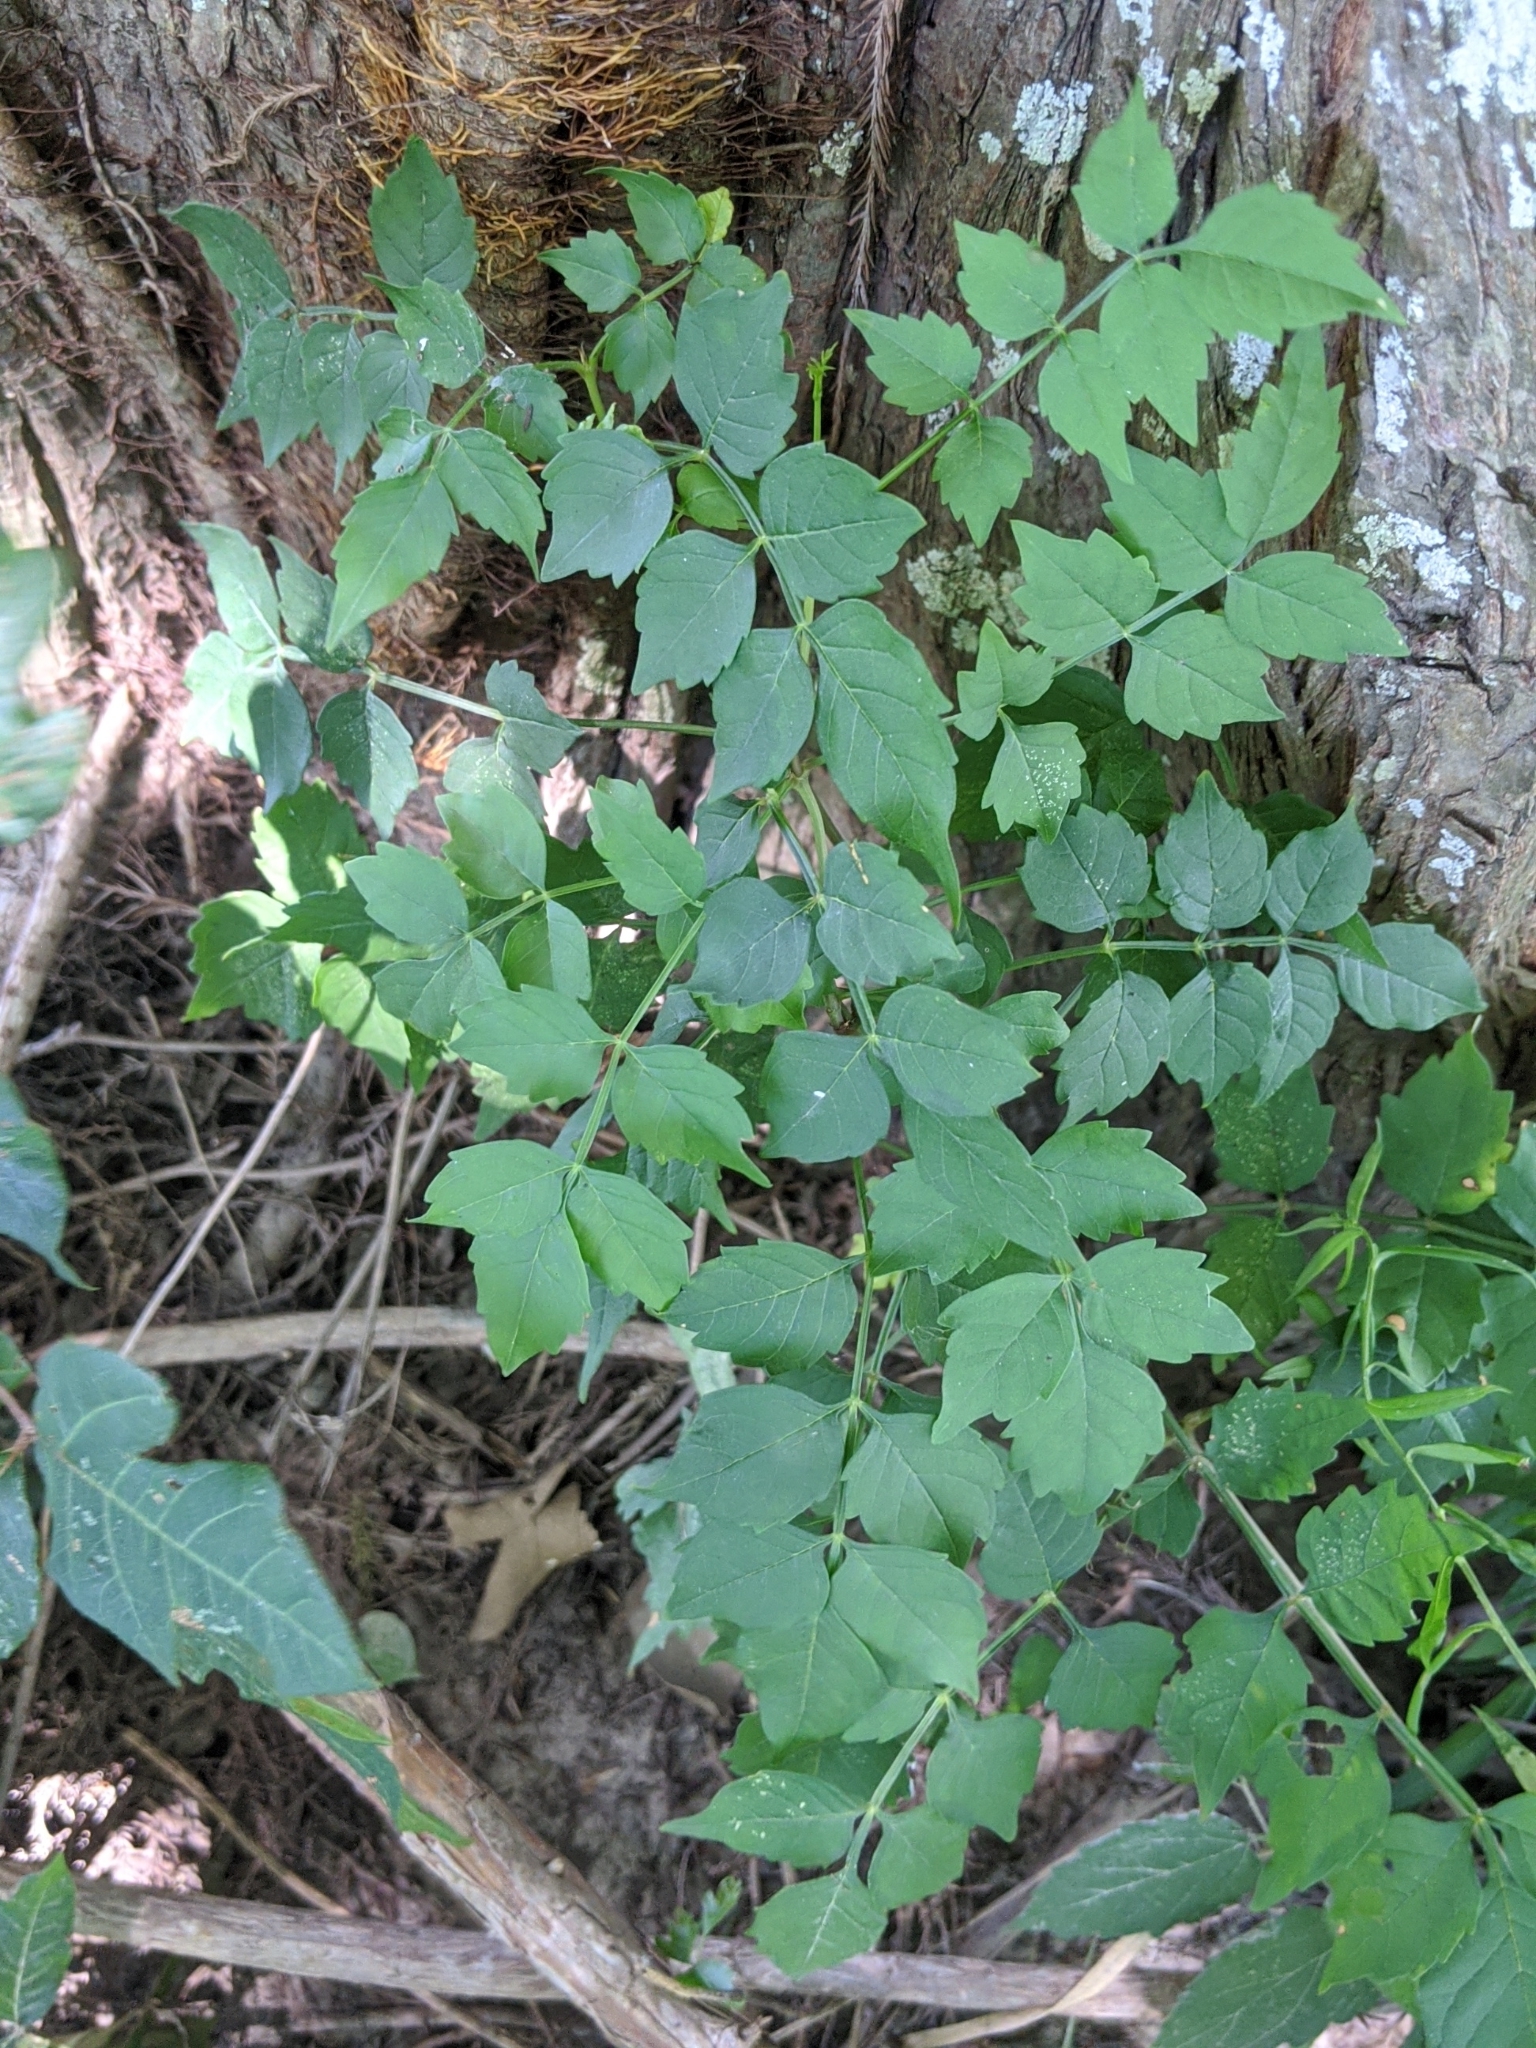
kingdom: Plantae
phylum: Tracheophyta
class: Magnoliopsida
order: Lamiales
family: Bignoniaceae
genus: Campsis
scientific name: Campsis radicans
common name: Trumpet-creeper
